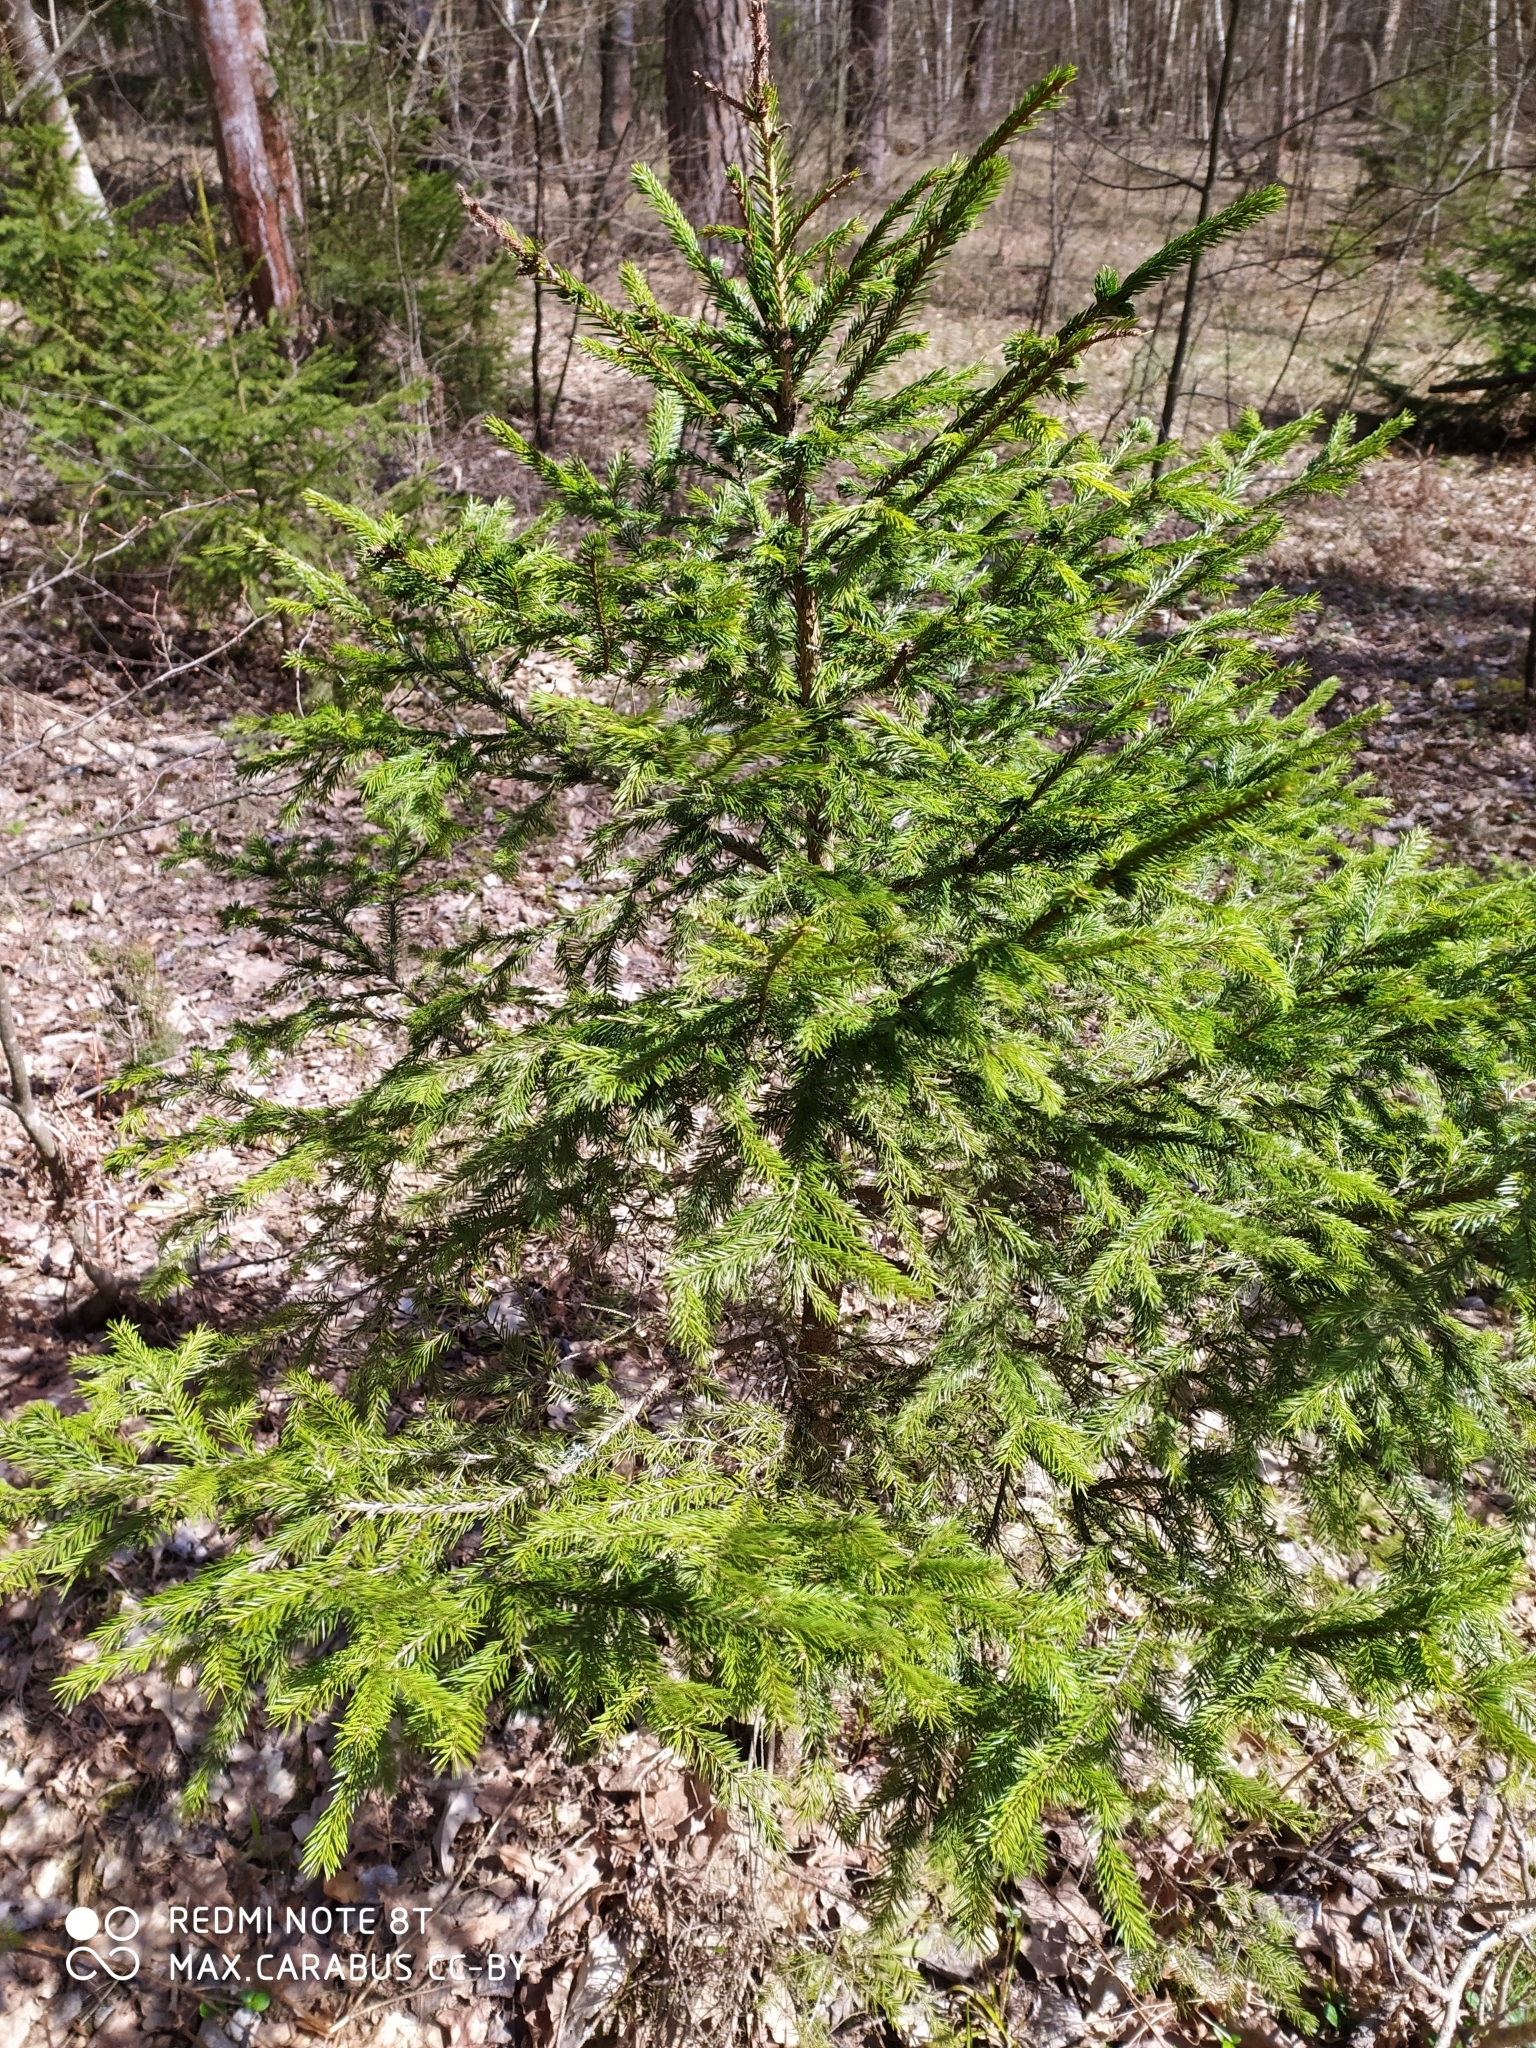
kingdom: Plantae
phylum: Tracheophyta
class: Pinopsida
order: Pinales
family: Pinaceae
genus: Picea
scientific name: Picea abies
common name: Norway spruce
